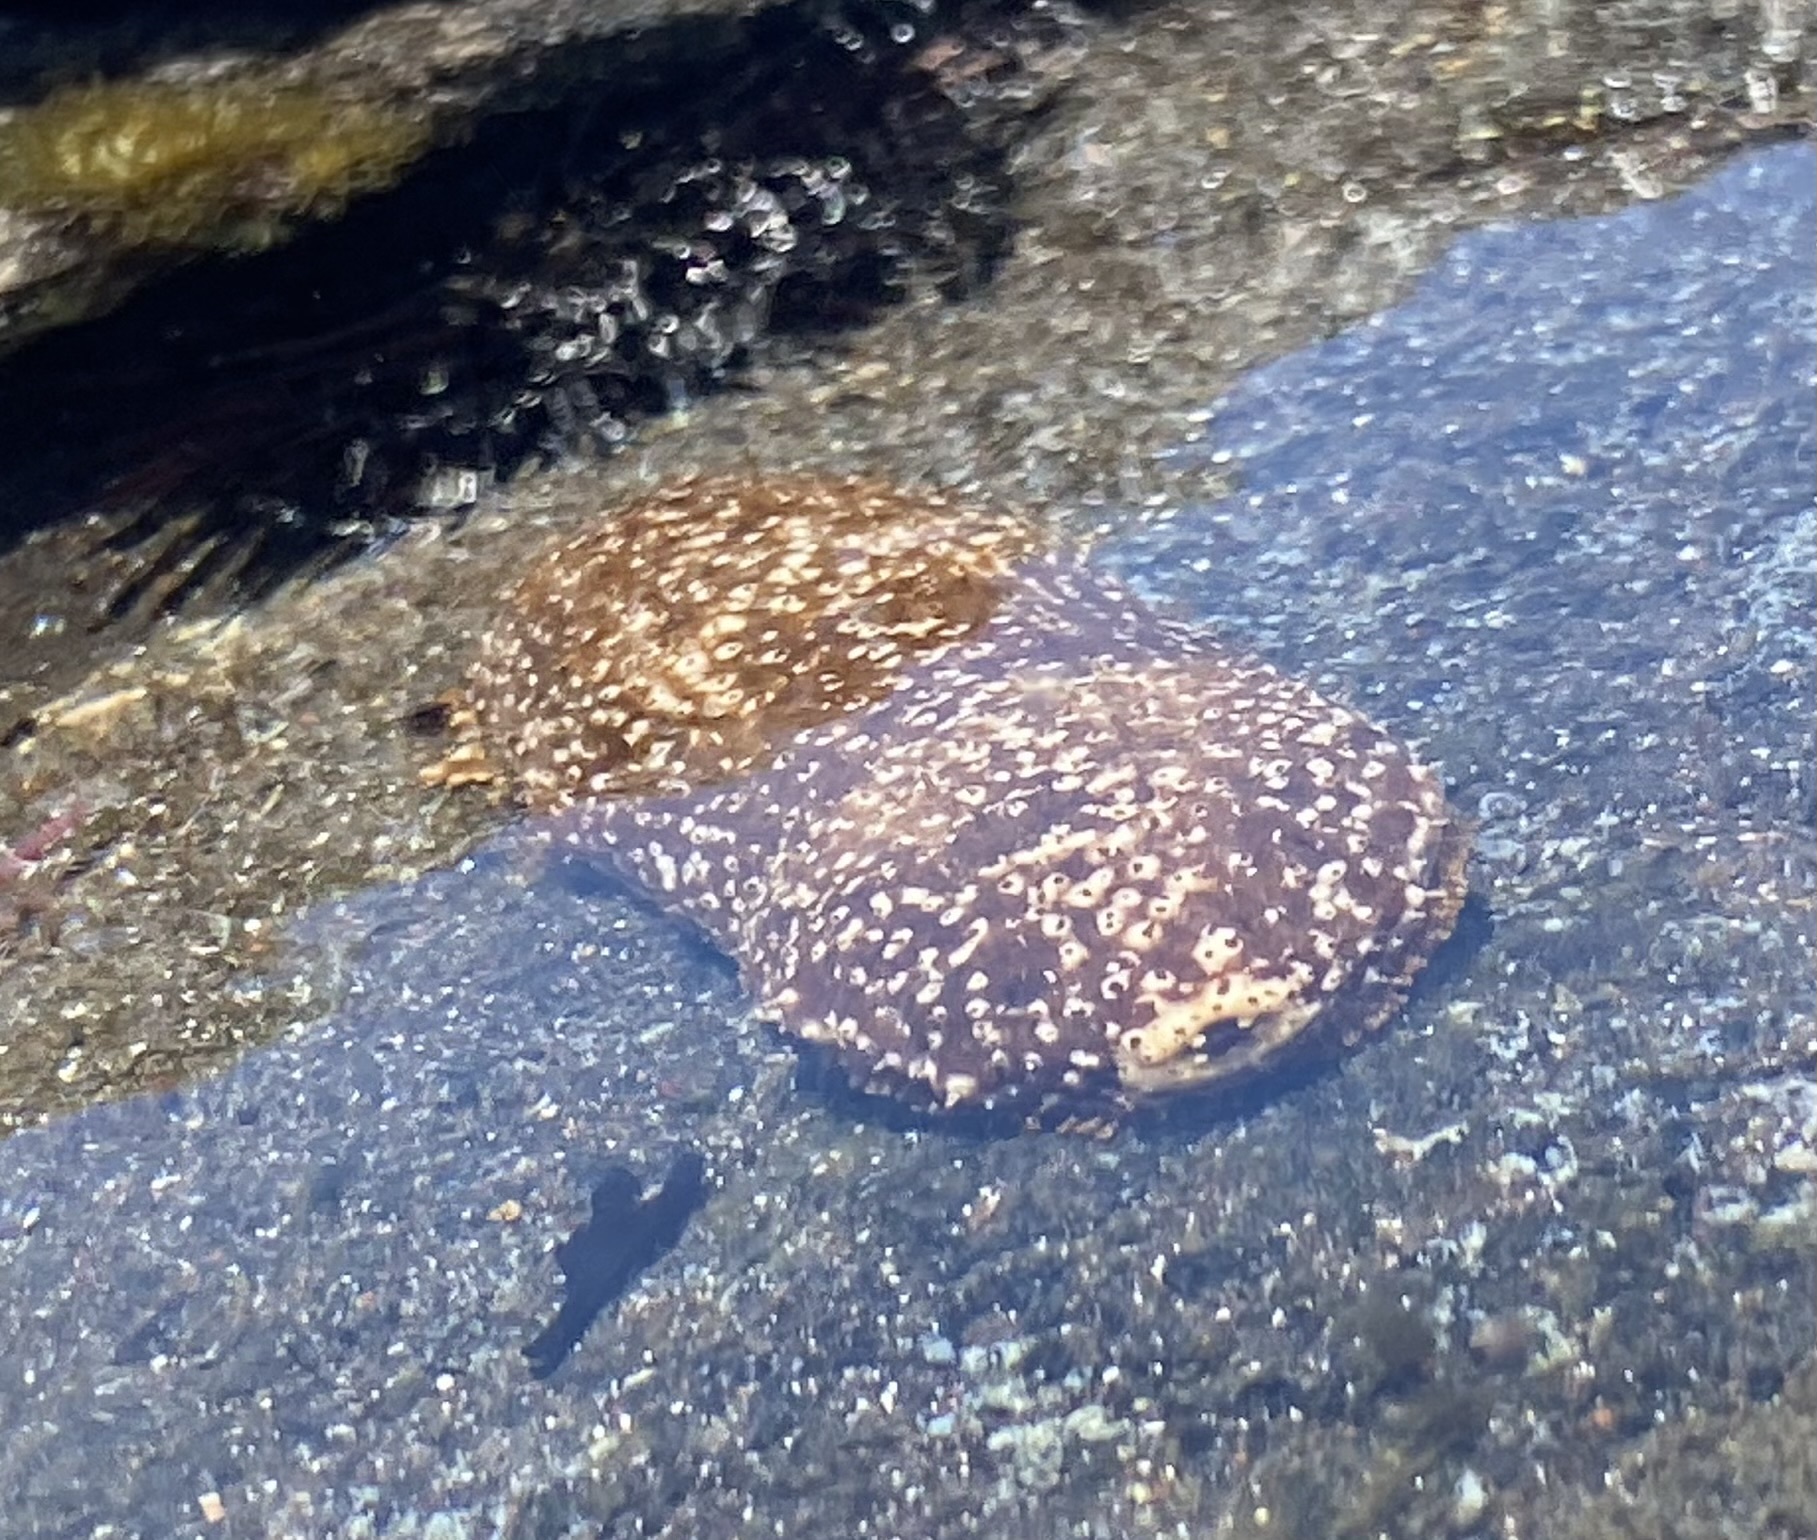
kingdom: Animalia
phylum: Echinodermata
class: Holothuroidea
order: Holothuriida
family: Holothuriidae
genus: Actinopyga
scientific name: Actinopyga varians
